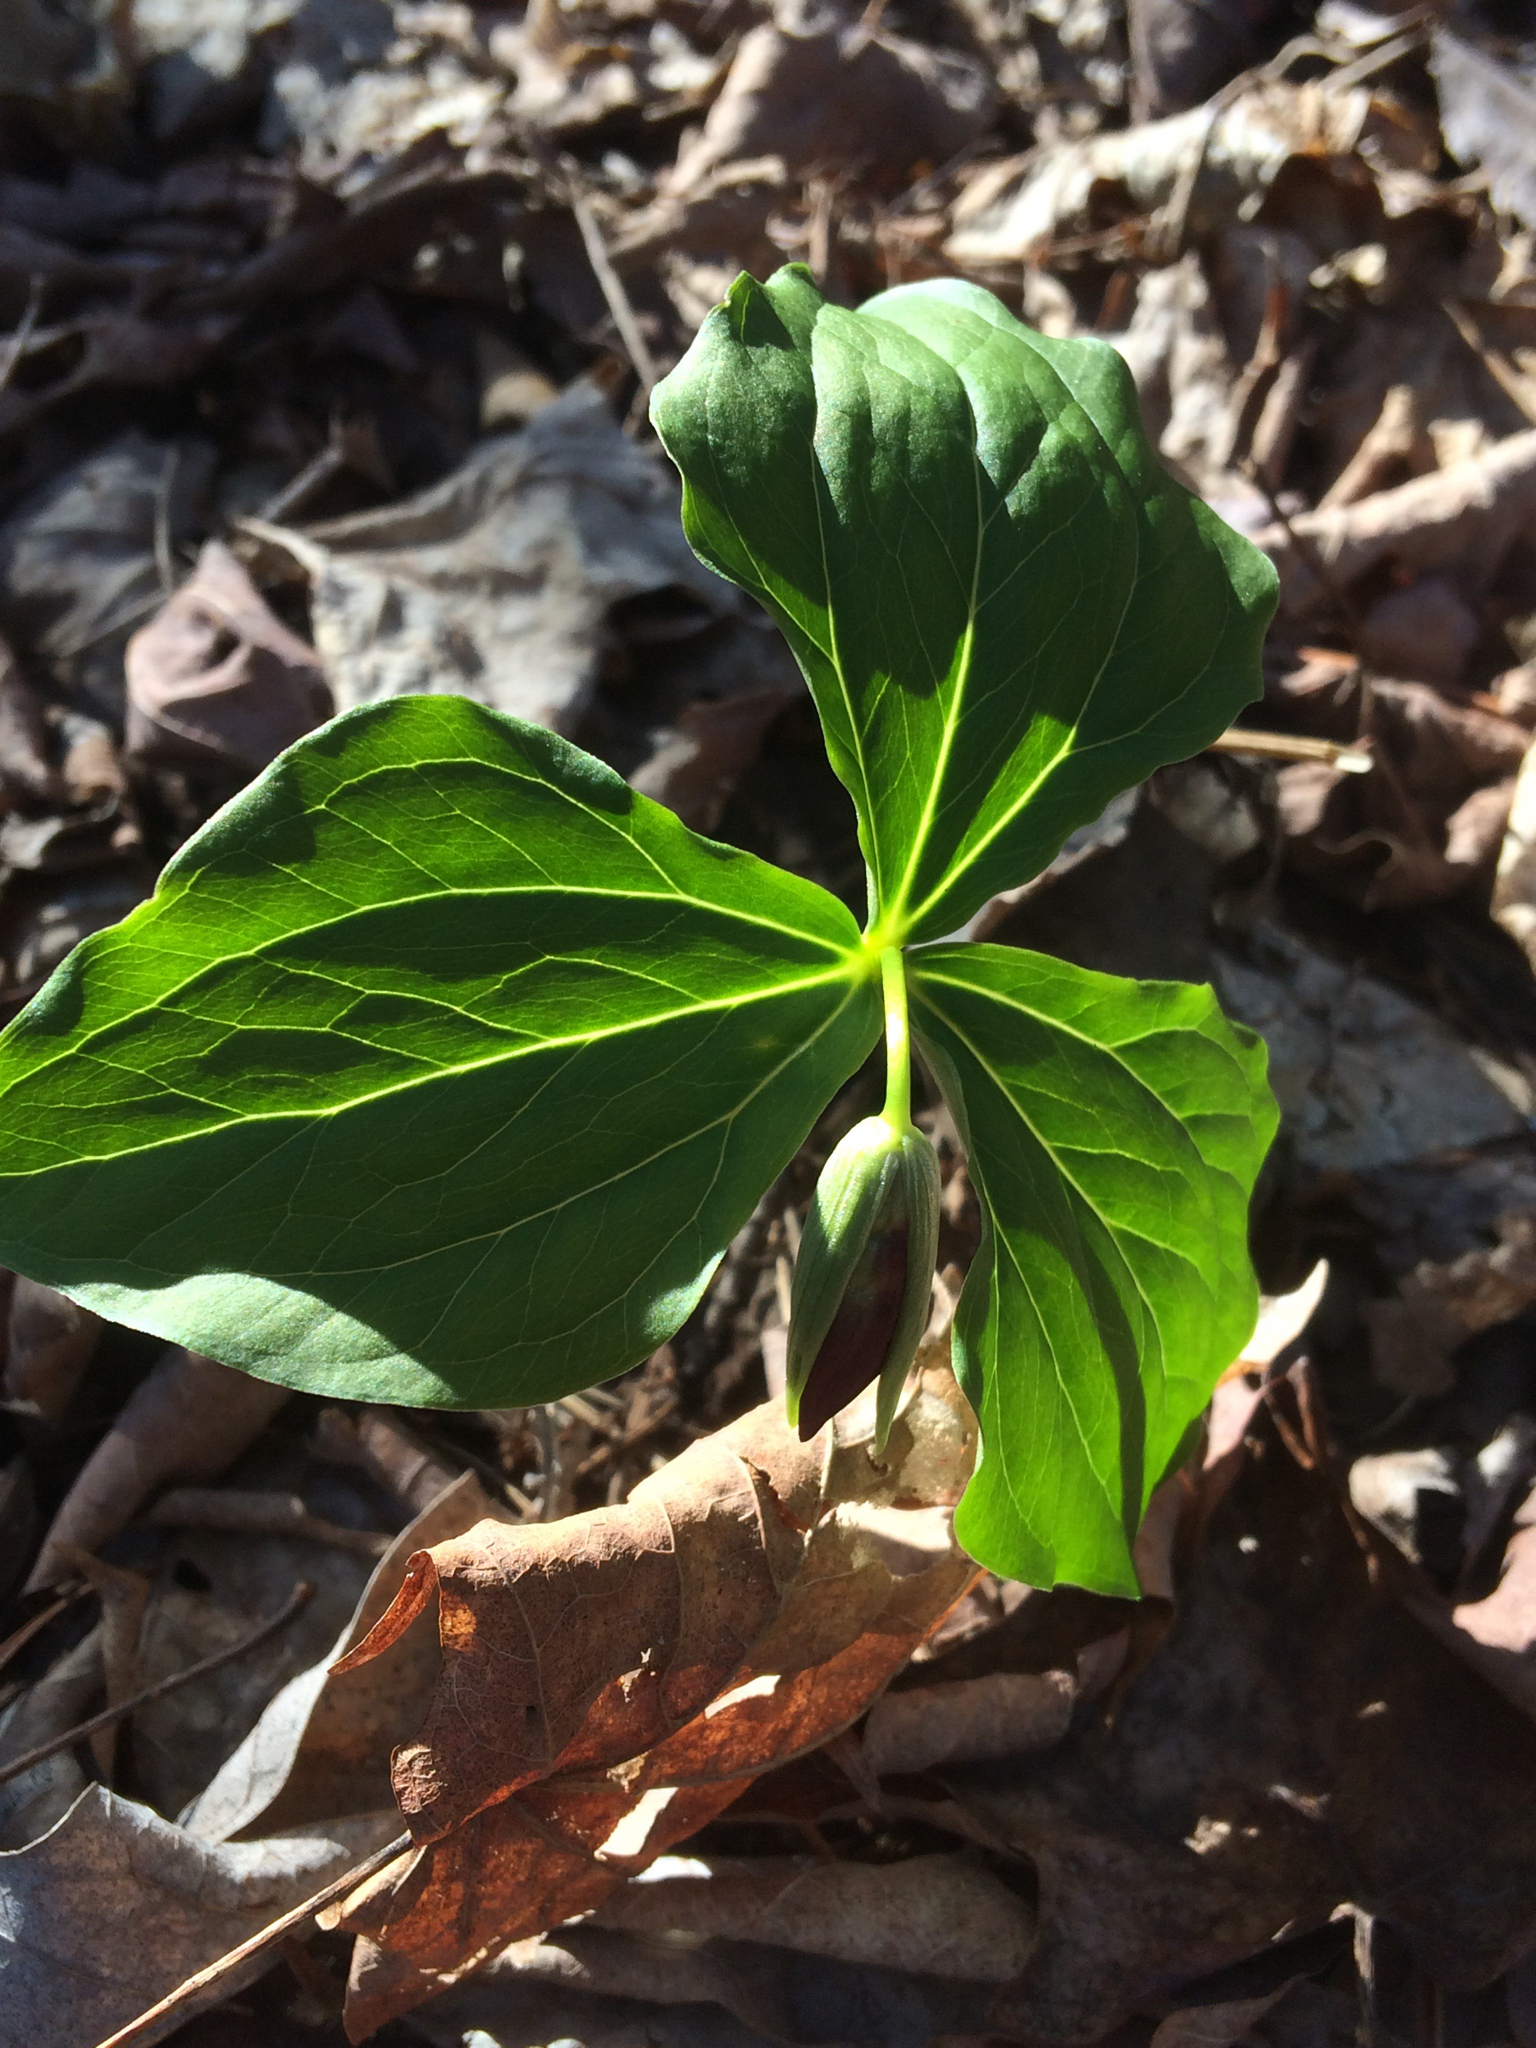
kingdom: Plantae
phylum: Tracheophyta
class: Liliopsida
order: Liliales
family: Melanthiaceae
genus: Trillium
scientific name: Trillium erectum
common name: Purple trillium
